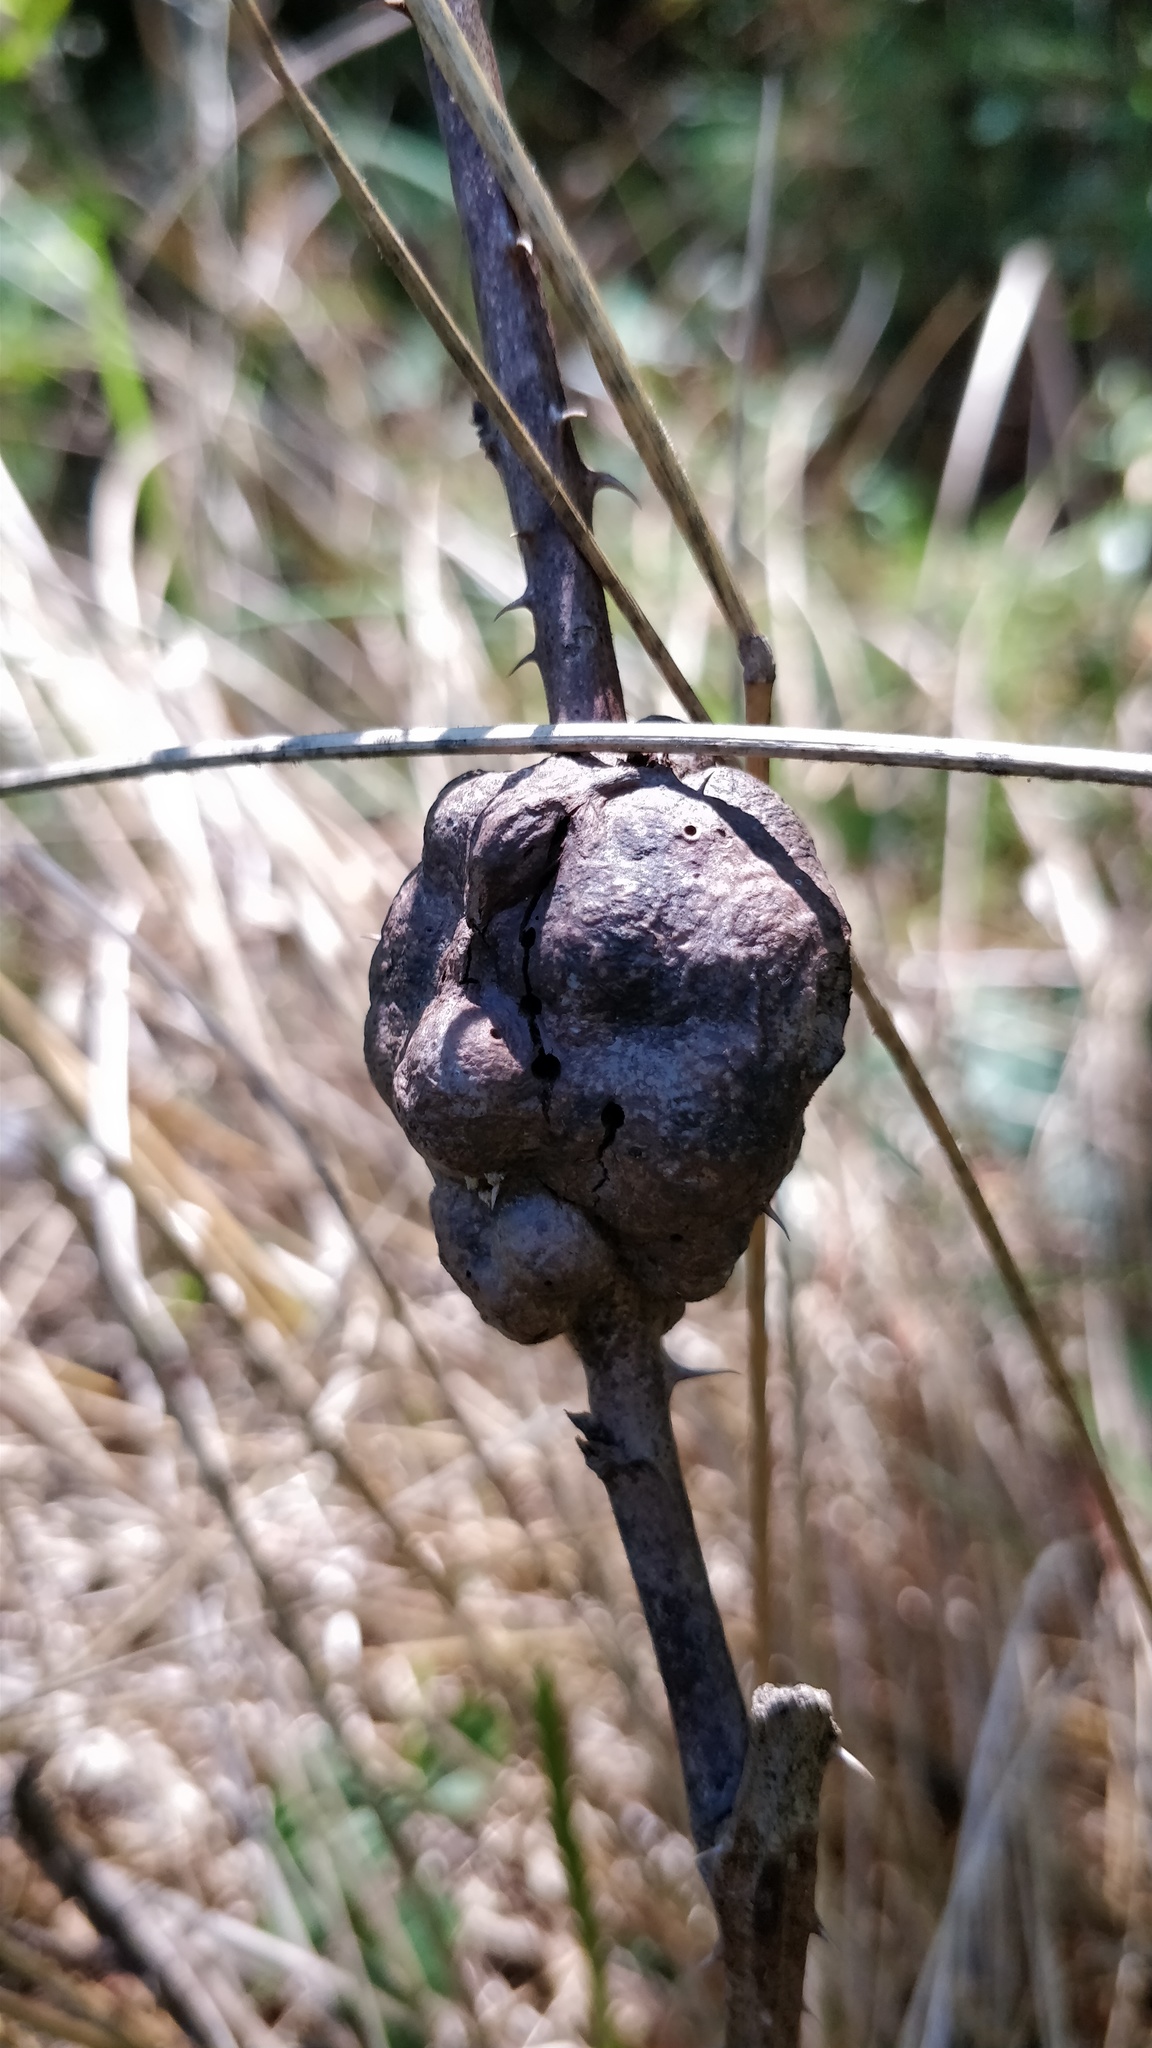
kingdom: Animalia
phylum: Arthropoda
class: Insecta
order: Hymenoptera
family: Cynipidae
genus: Diastrophus
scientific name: Diastrophus
